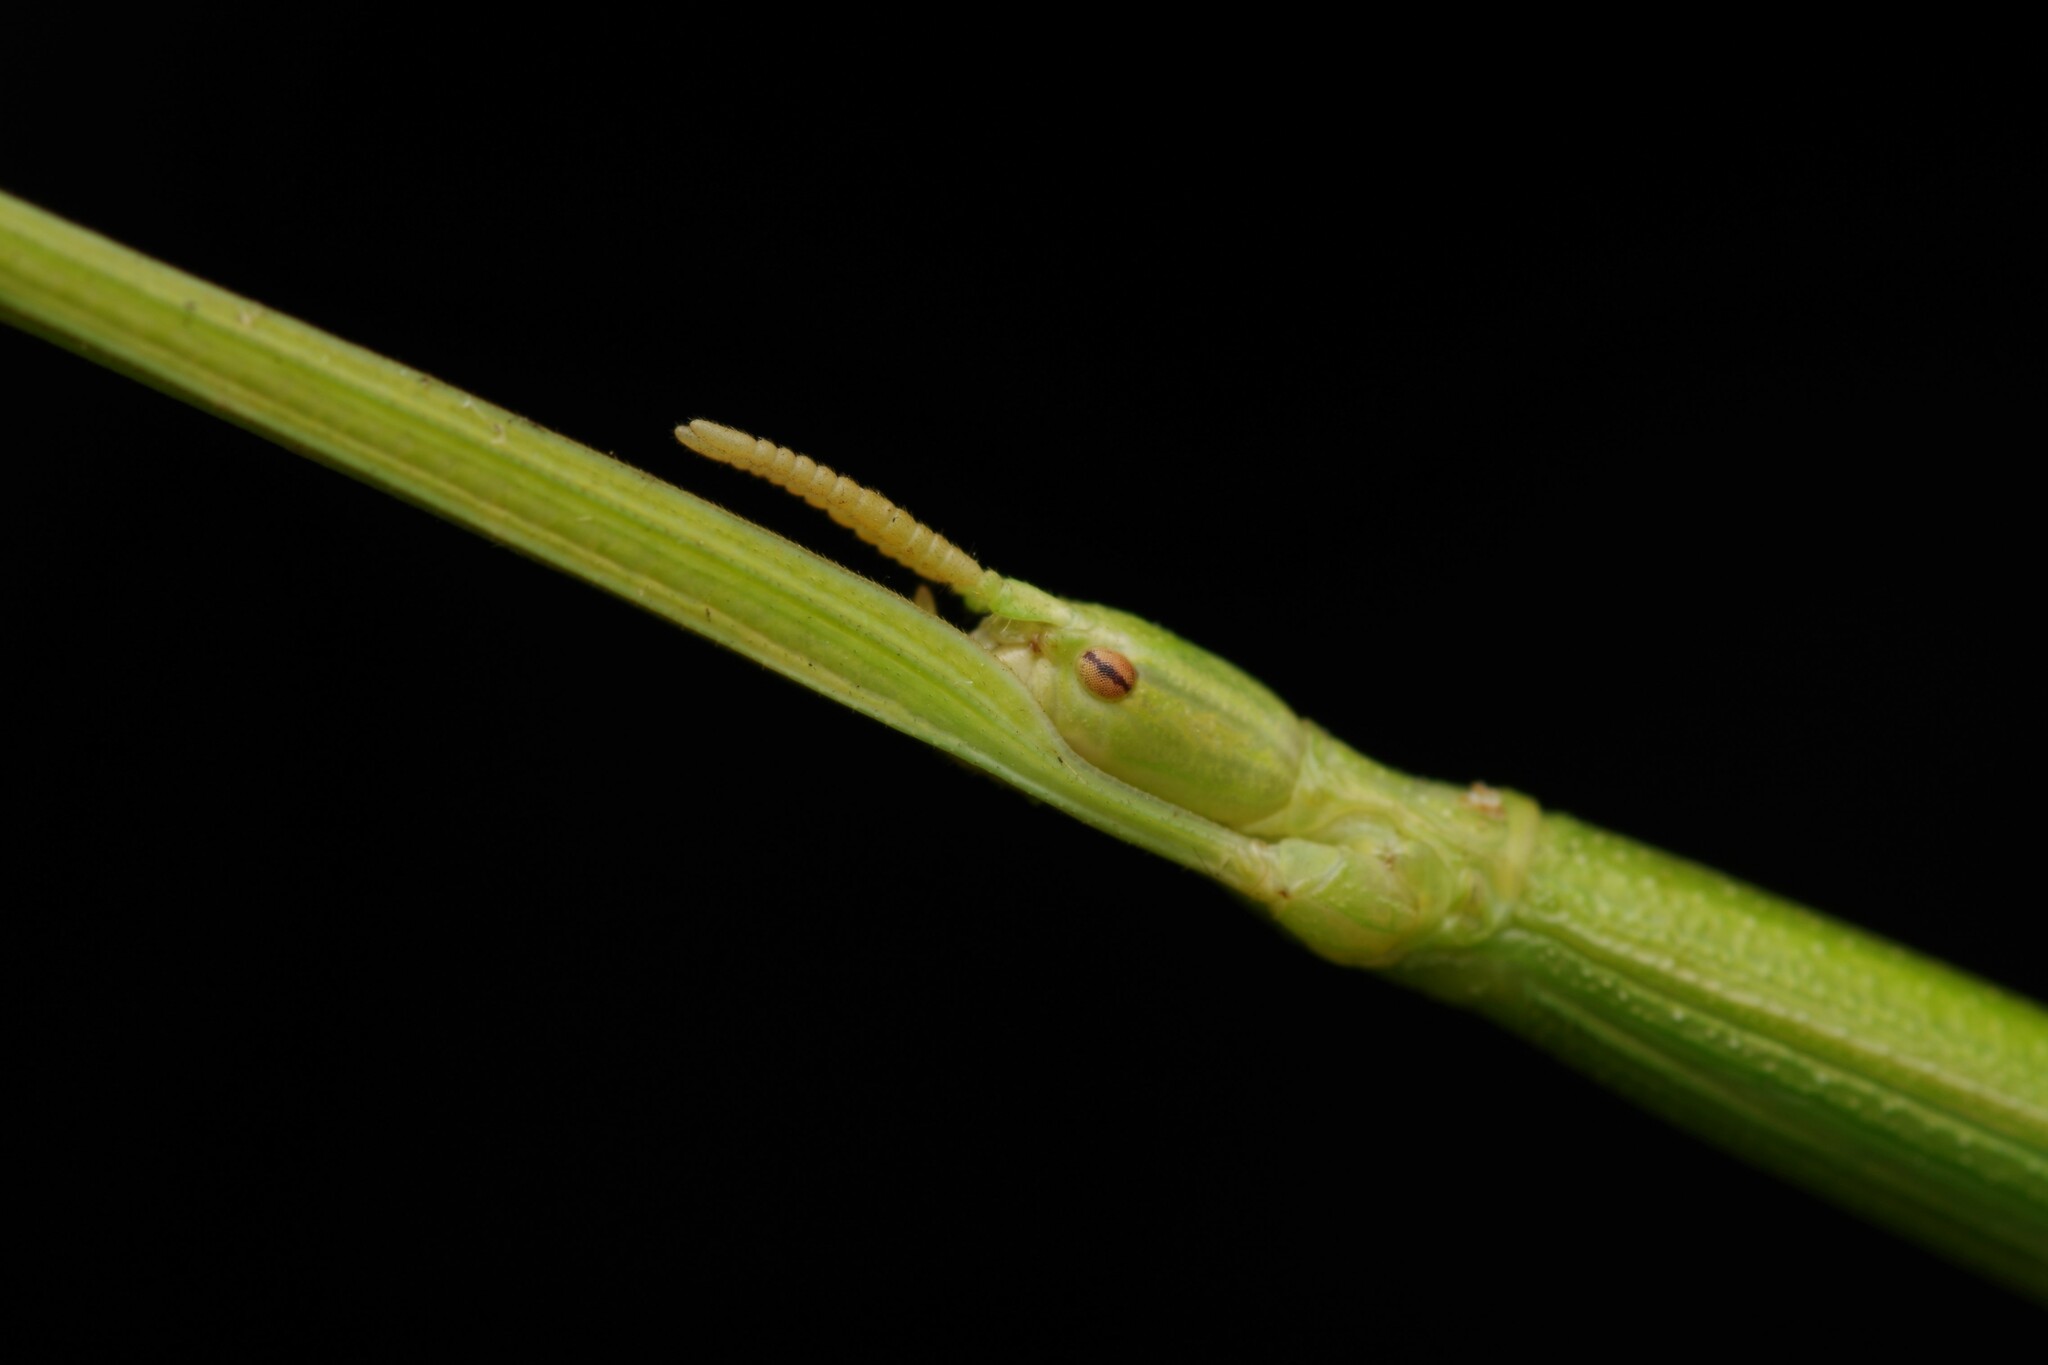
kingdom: Animalia
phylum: Arthropoda
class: Insecta
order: Phasmida
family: Bacillidae
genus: Clonopsis
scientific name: Clonopsis gallica
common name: French stick insect
